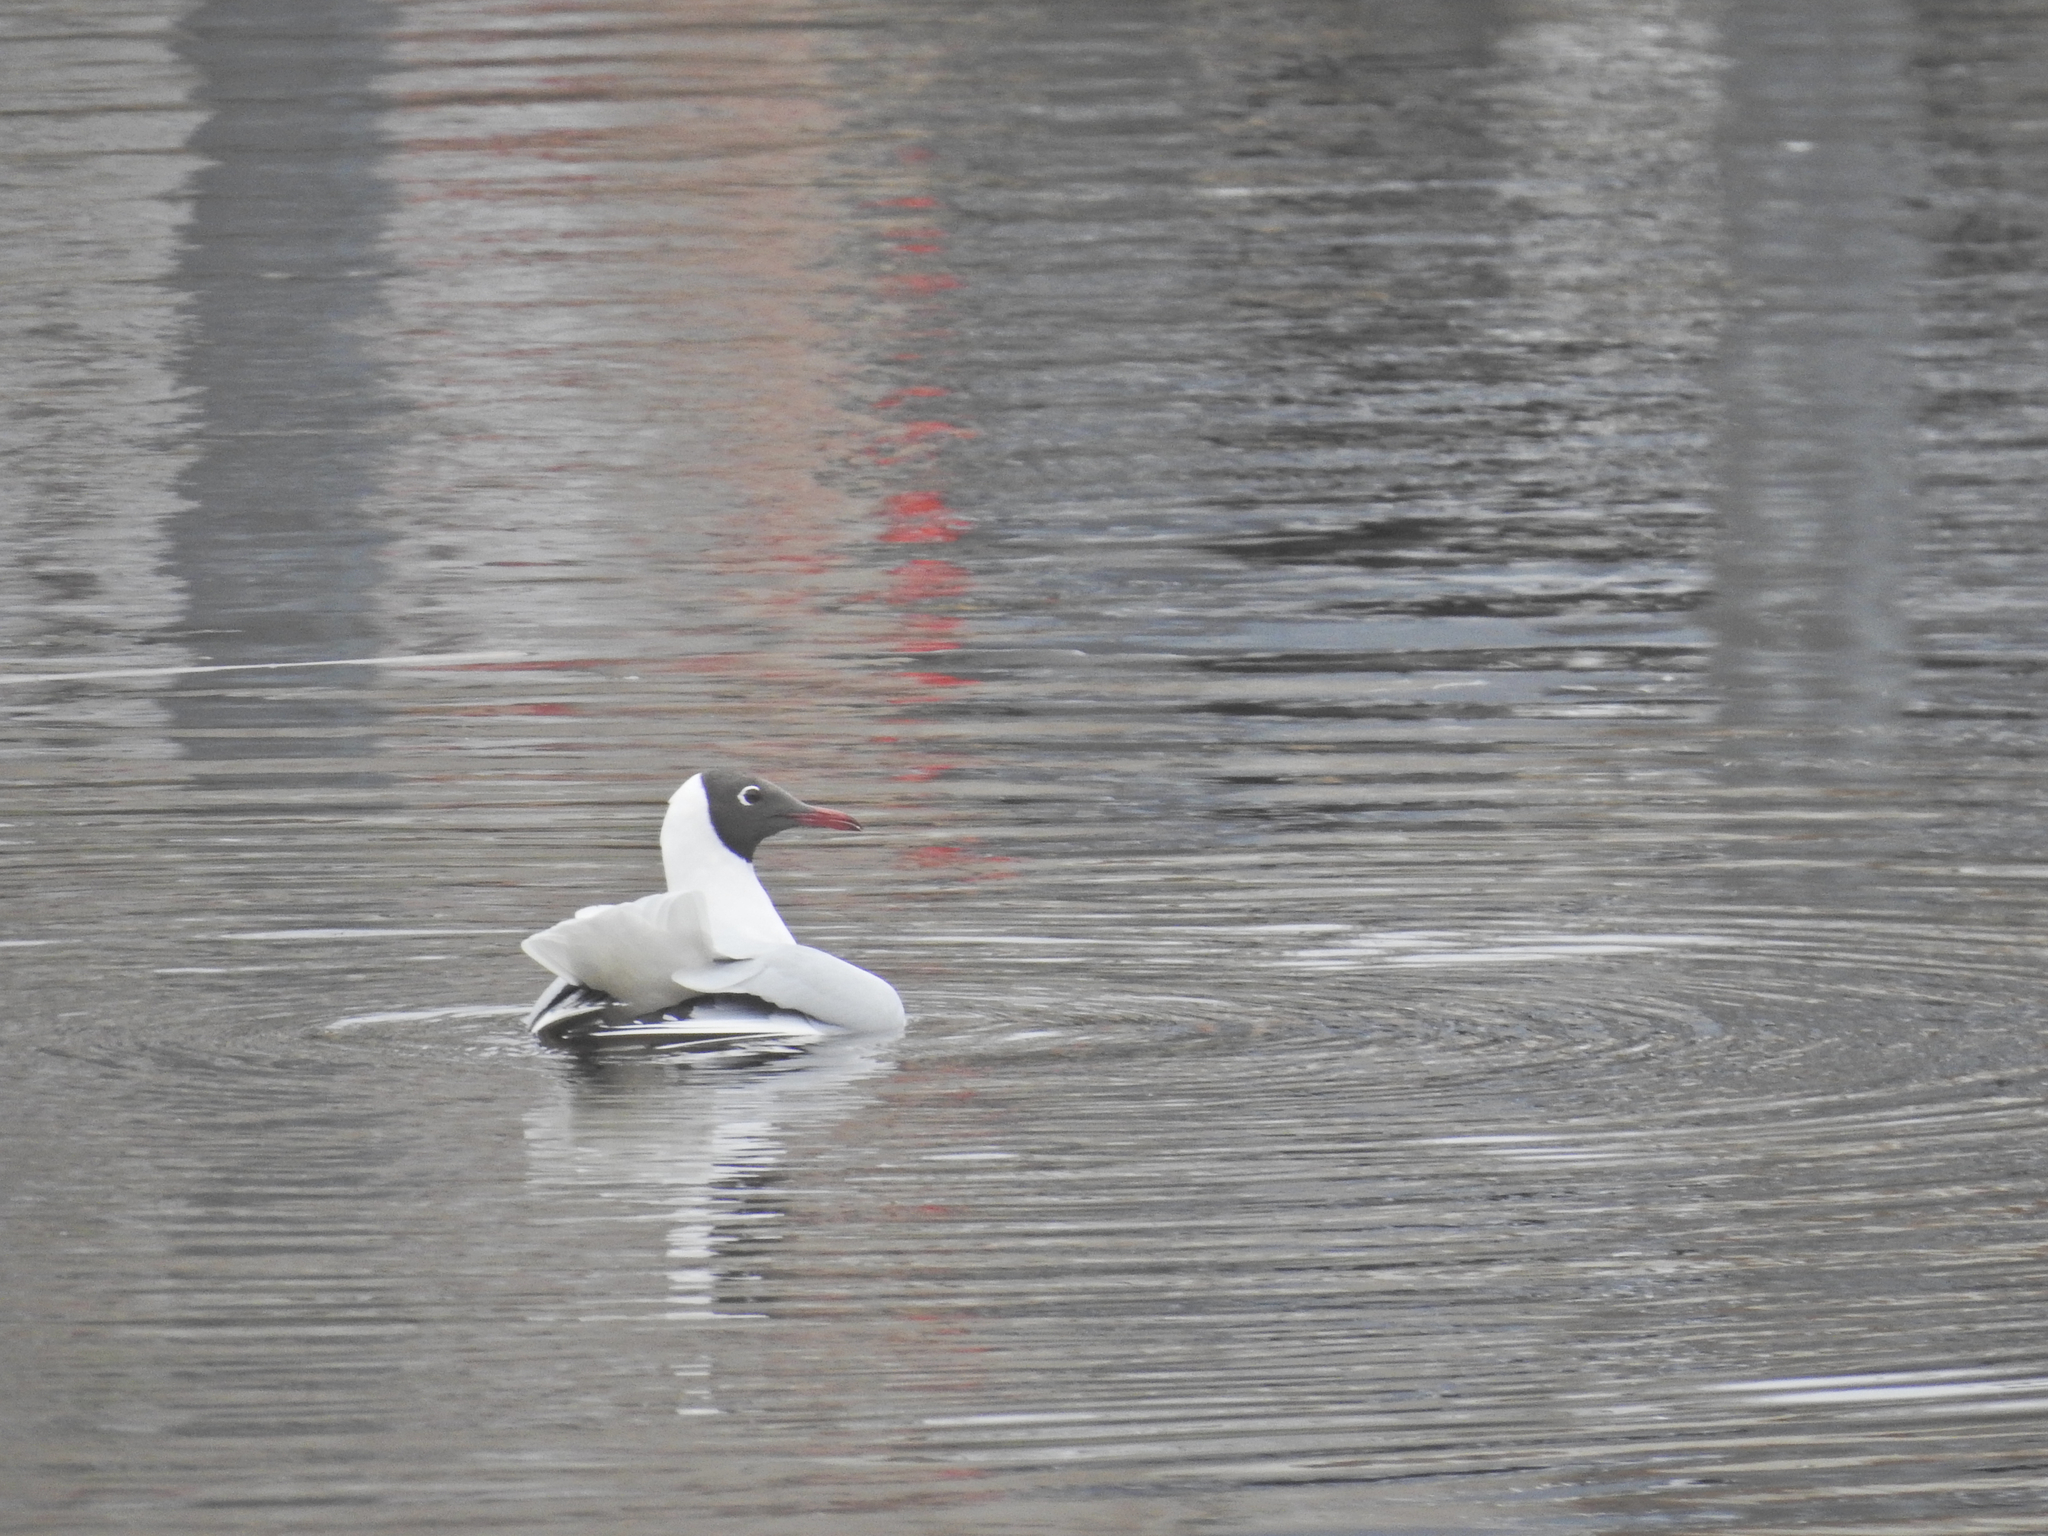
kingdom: Animalia
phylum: Chordata
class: Aves
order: Charadriiformes
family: Laridae
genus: Chroicocephalus
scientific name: Chroicocephalus ridibundus
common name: Black-headed gull
